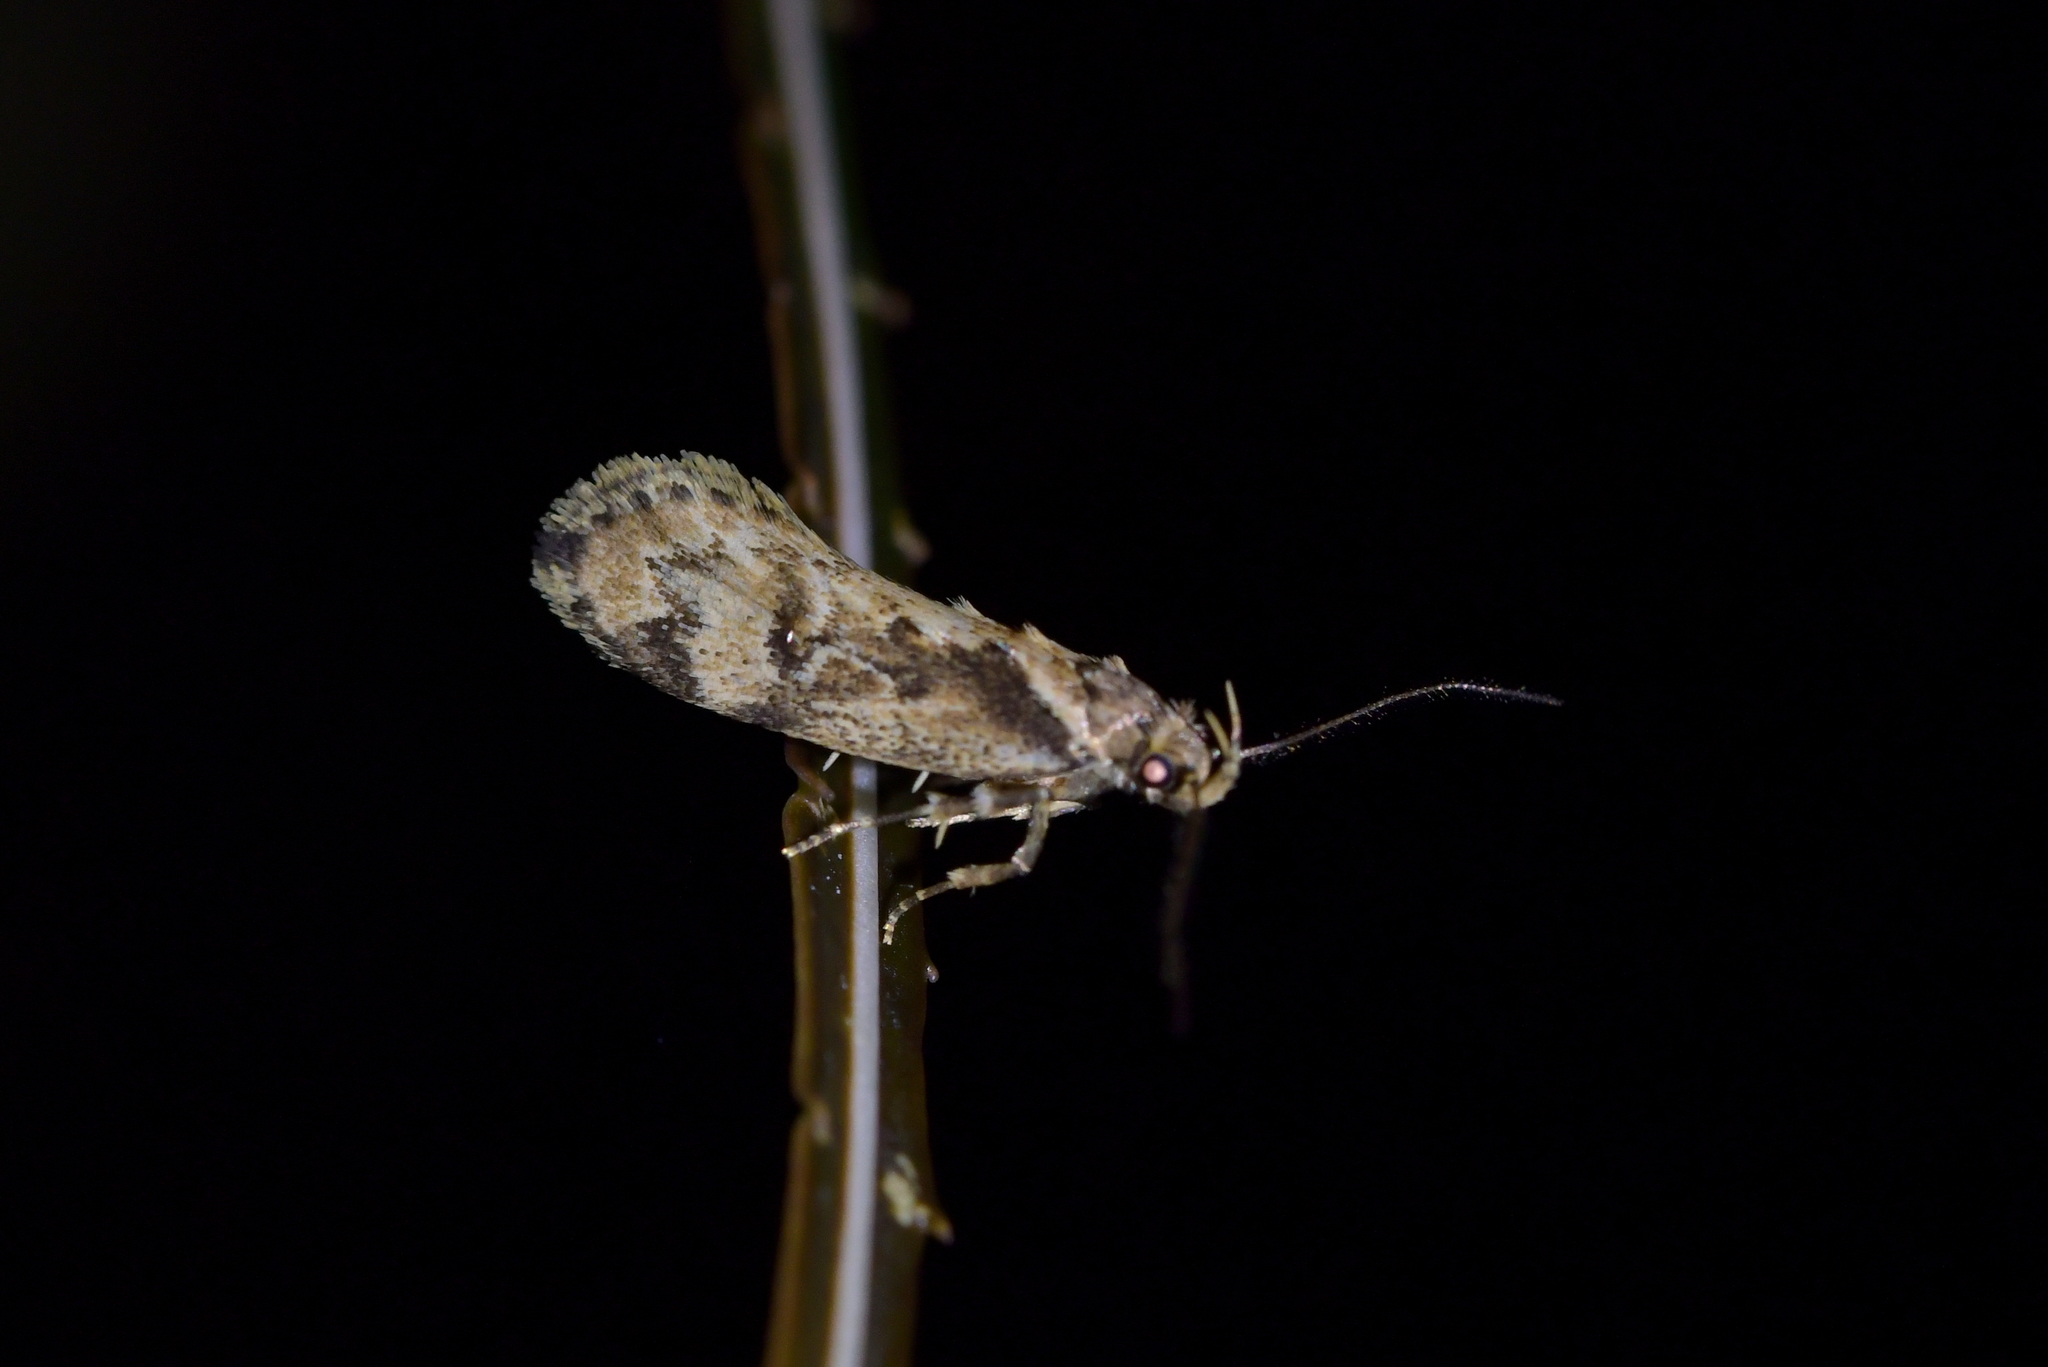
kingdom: Animalia
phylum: Arthropoda
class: Insecta
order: Lepidoptera
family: Oecophoridae
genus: Atomotricha
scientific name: Atomotricha exsomnis
